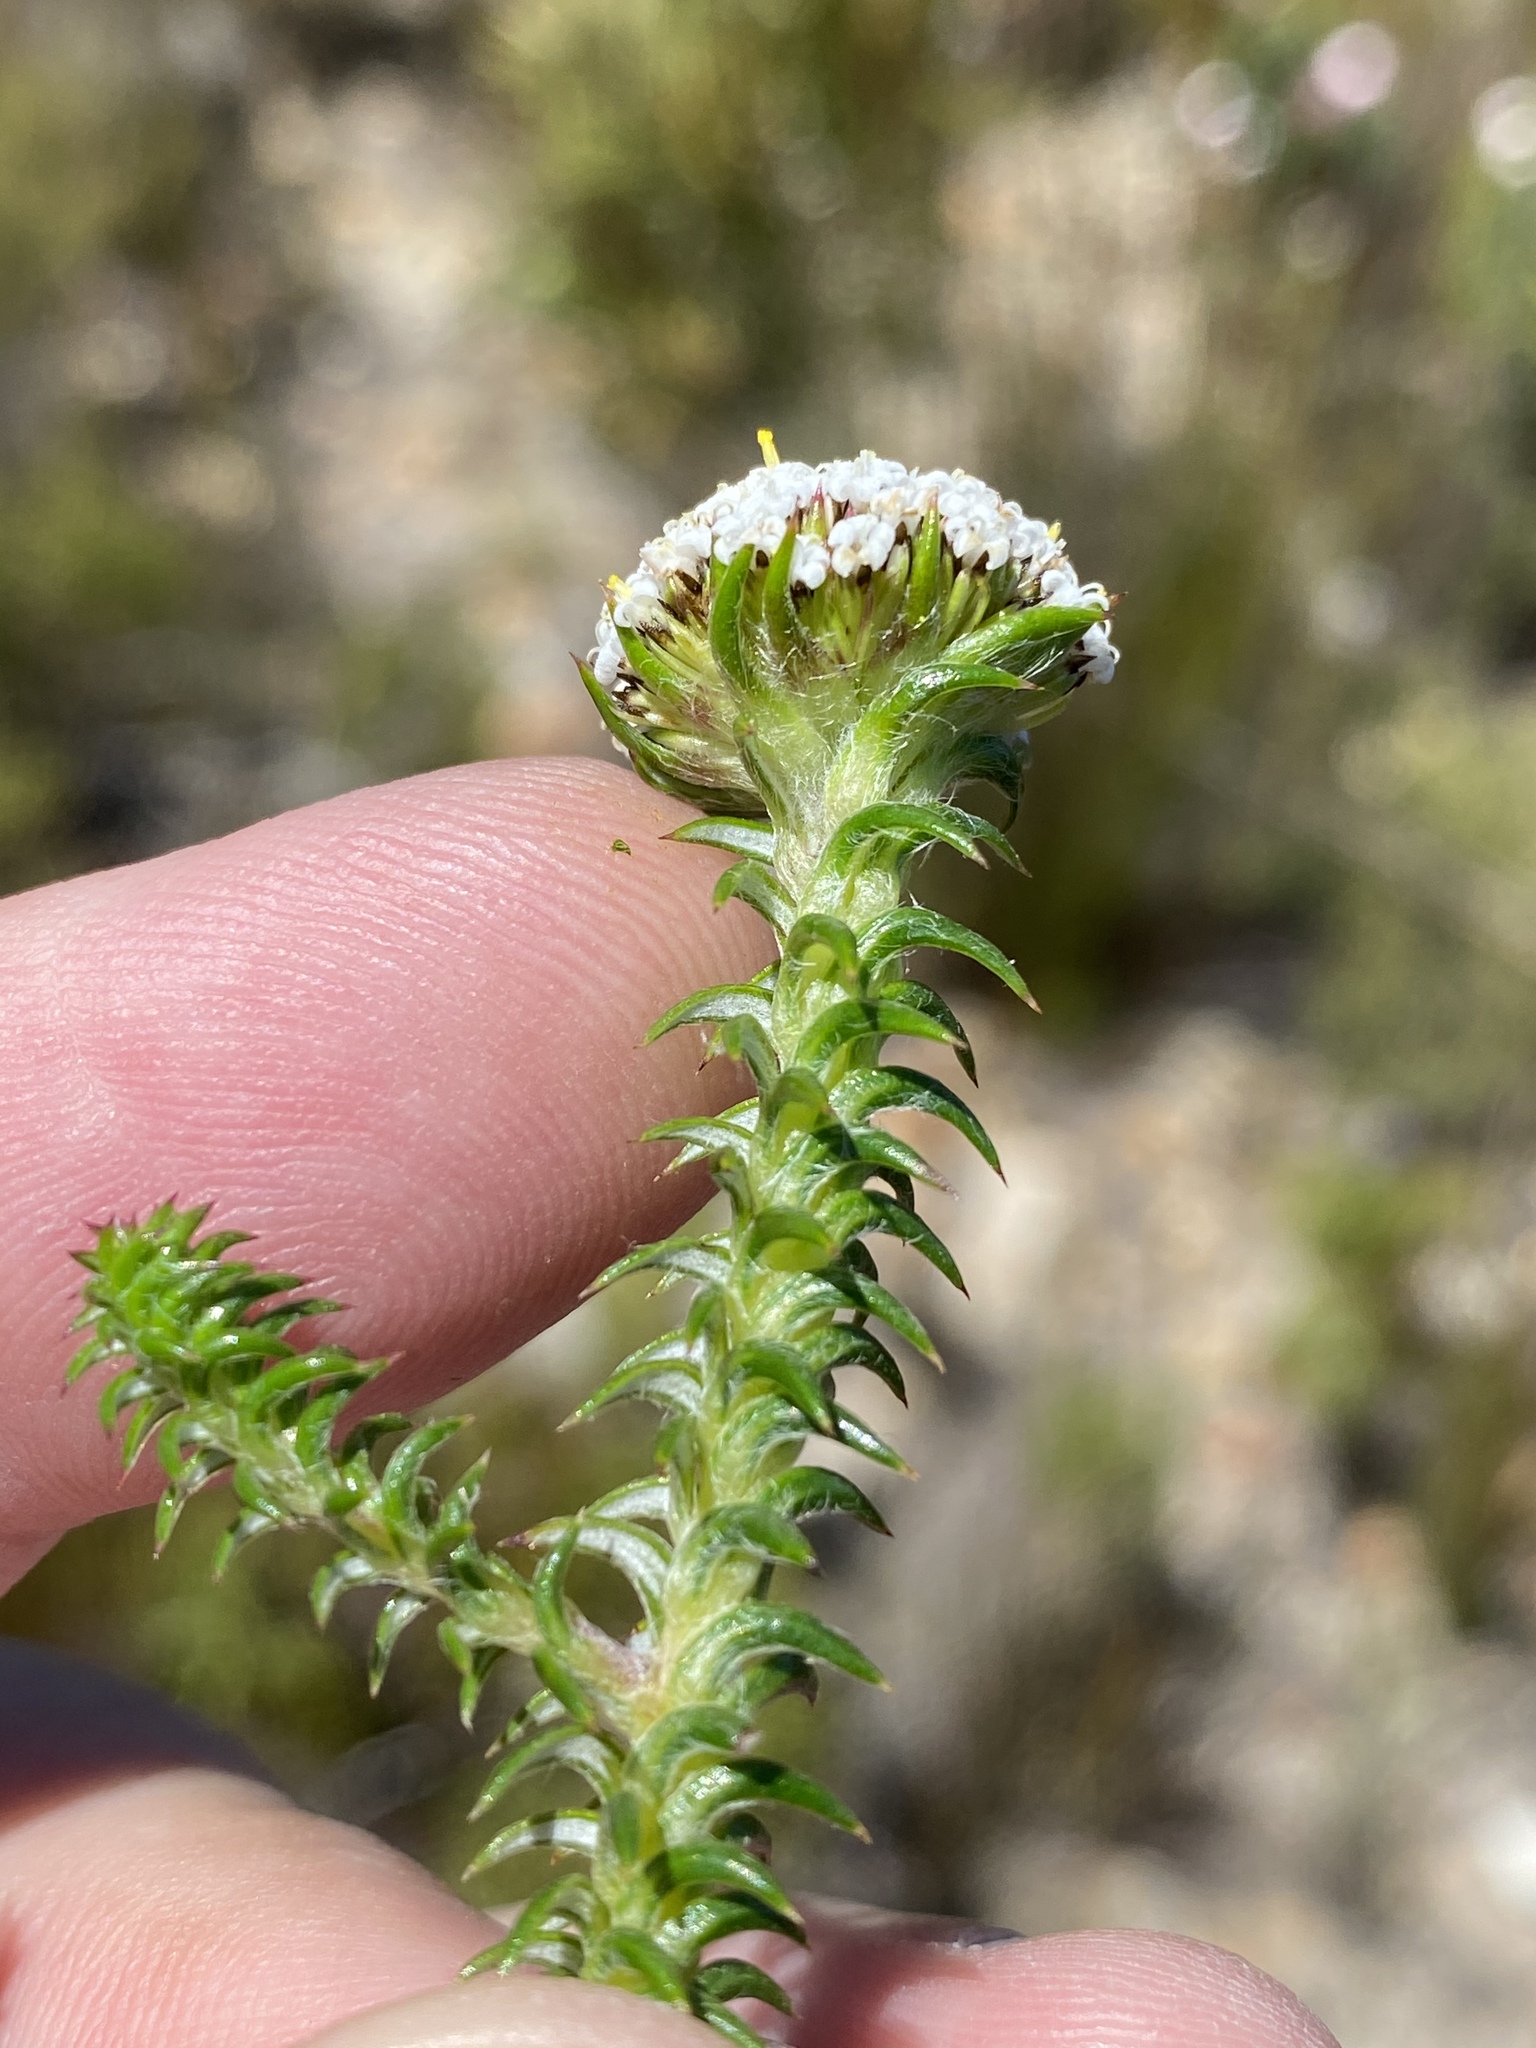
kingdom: Plantae
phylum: Tracheophyta
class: Magnoliopsida
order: Asterales
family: Asteraceae
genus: Stoebe
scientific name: Stoebe aethiopica
